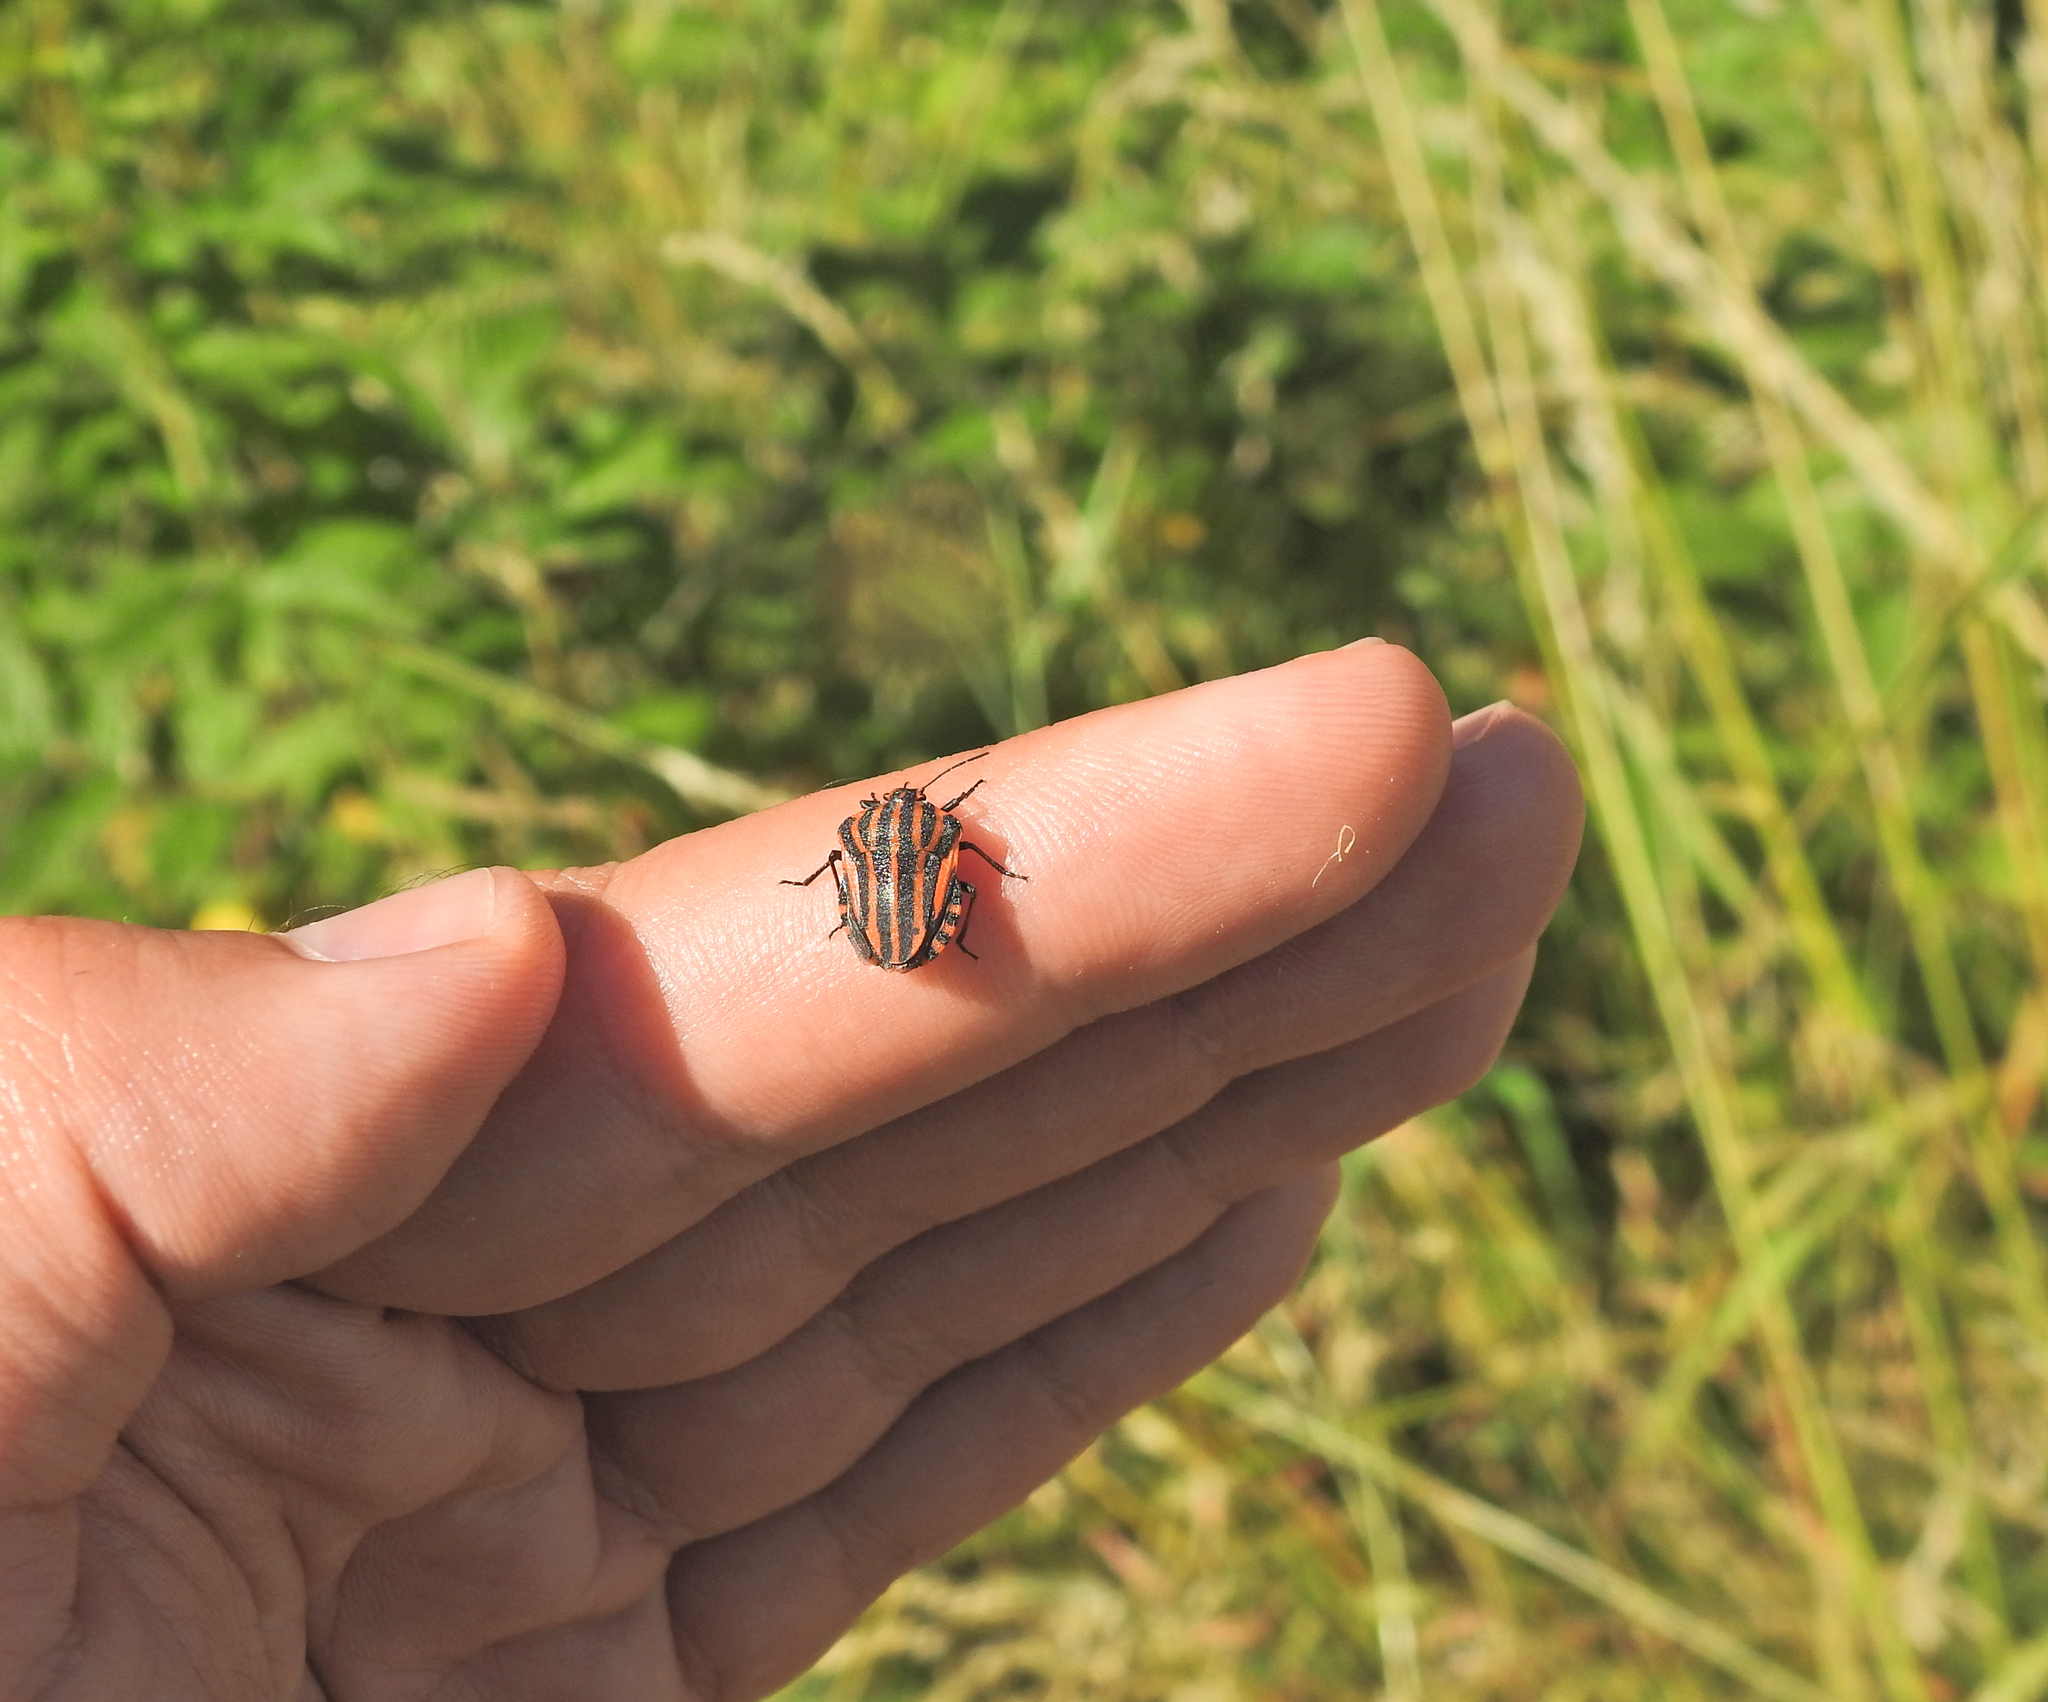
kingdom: Animalia
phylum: Arthropoda
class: Insecta
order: Hemiptera
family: Pentatomidae
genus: Graphosoma
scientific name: Graphosoma italicum
